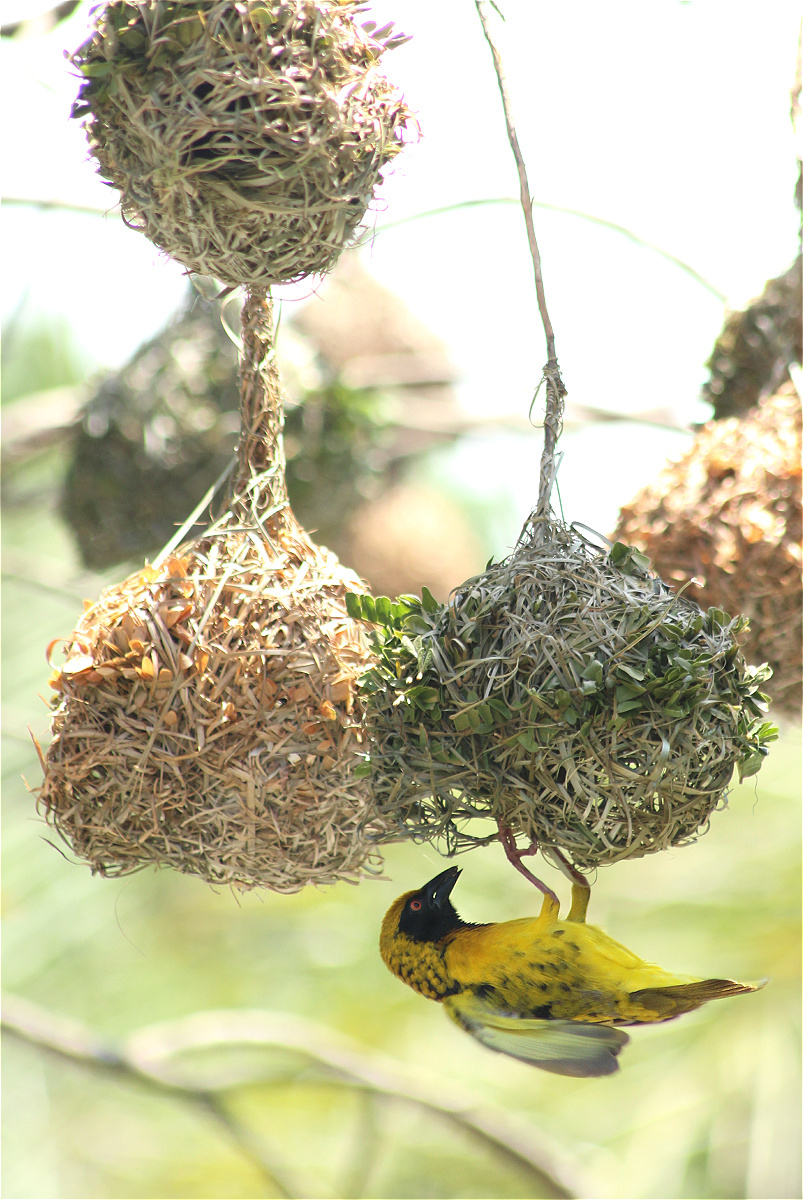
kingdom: Animalia
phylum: Chordata
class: Aves
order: Passeriformes
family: Ploceidae
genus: Ploceus
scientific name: Ploceus cucullatus
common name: Village weaver
